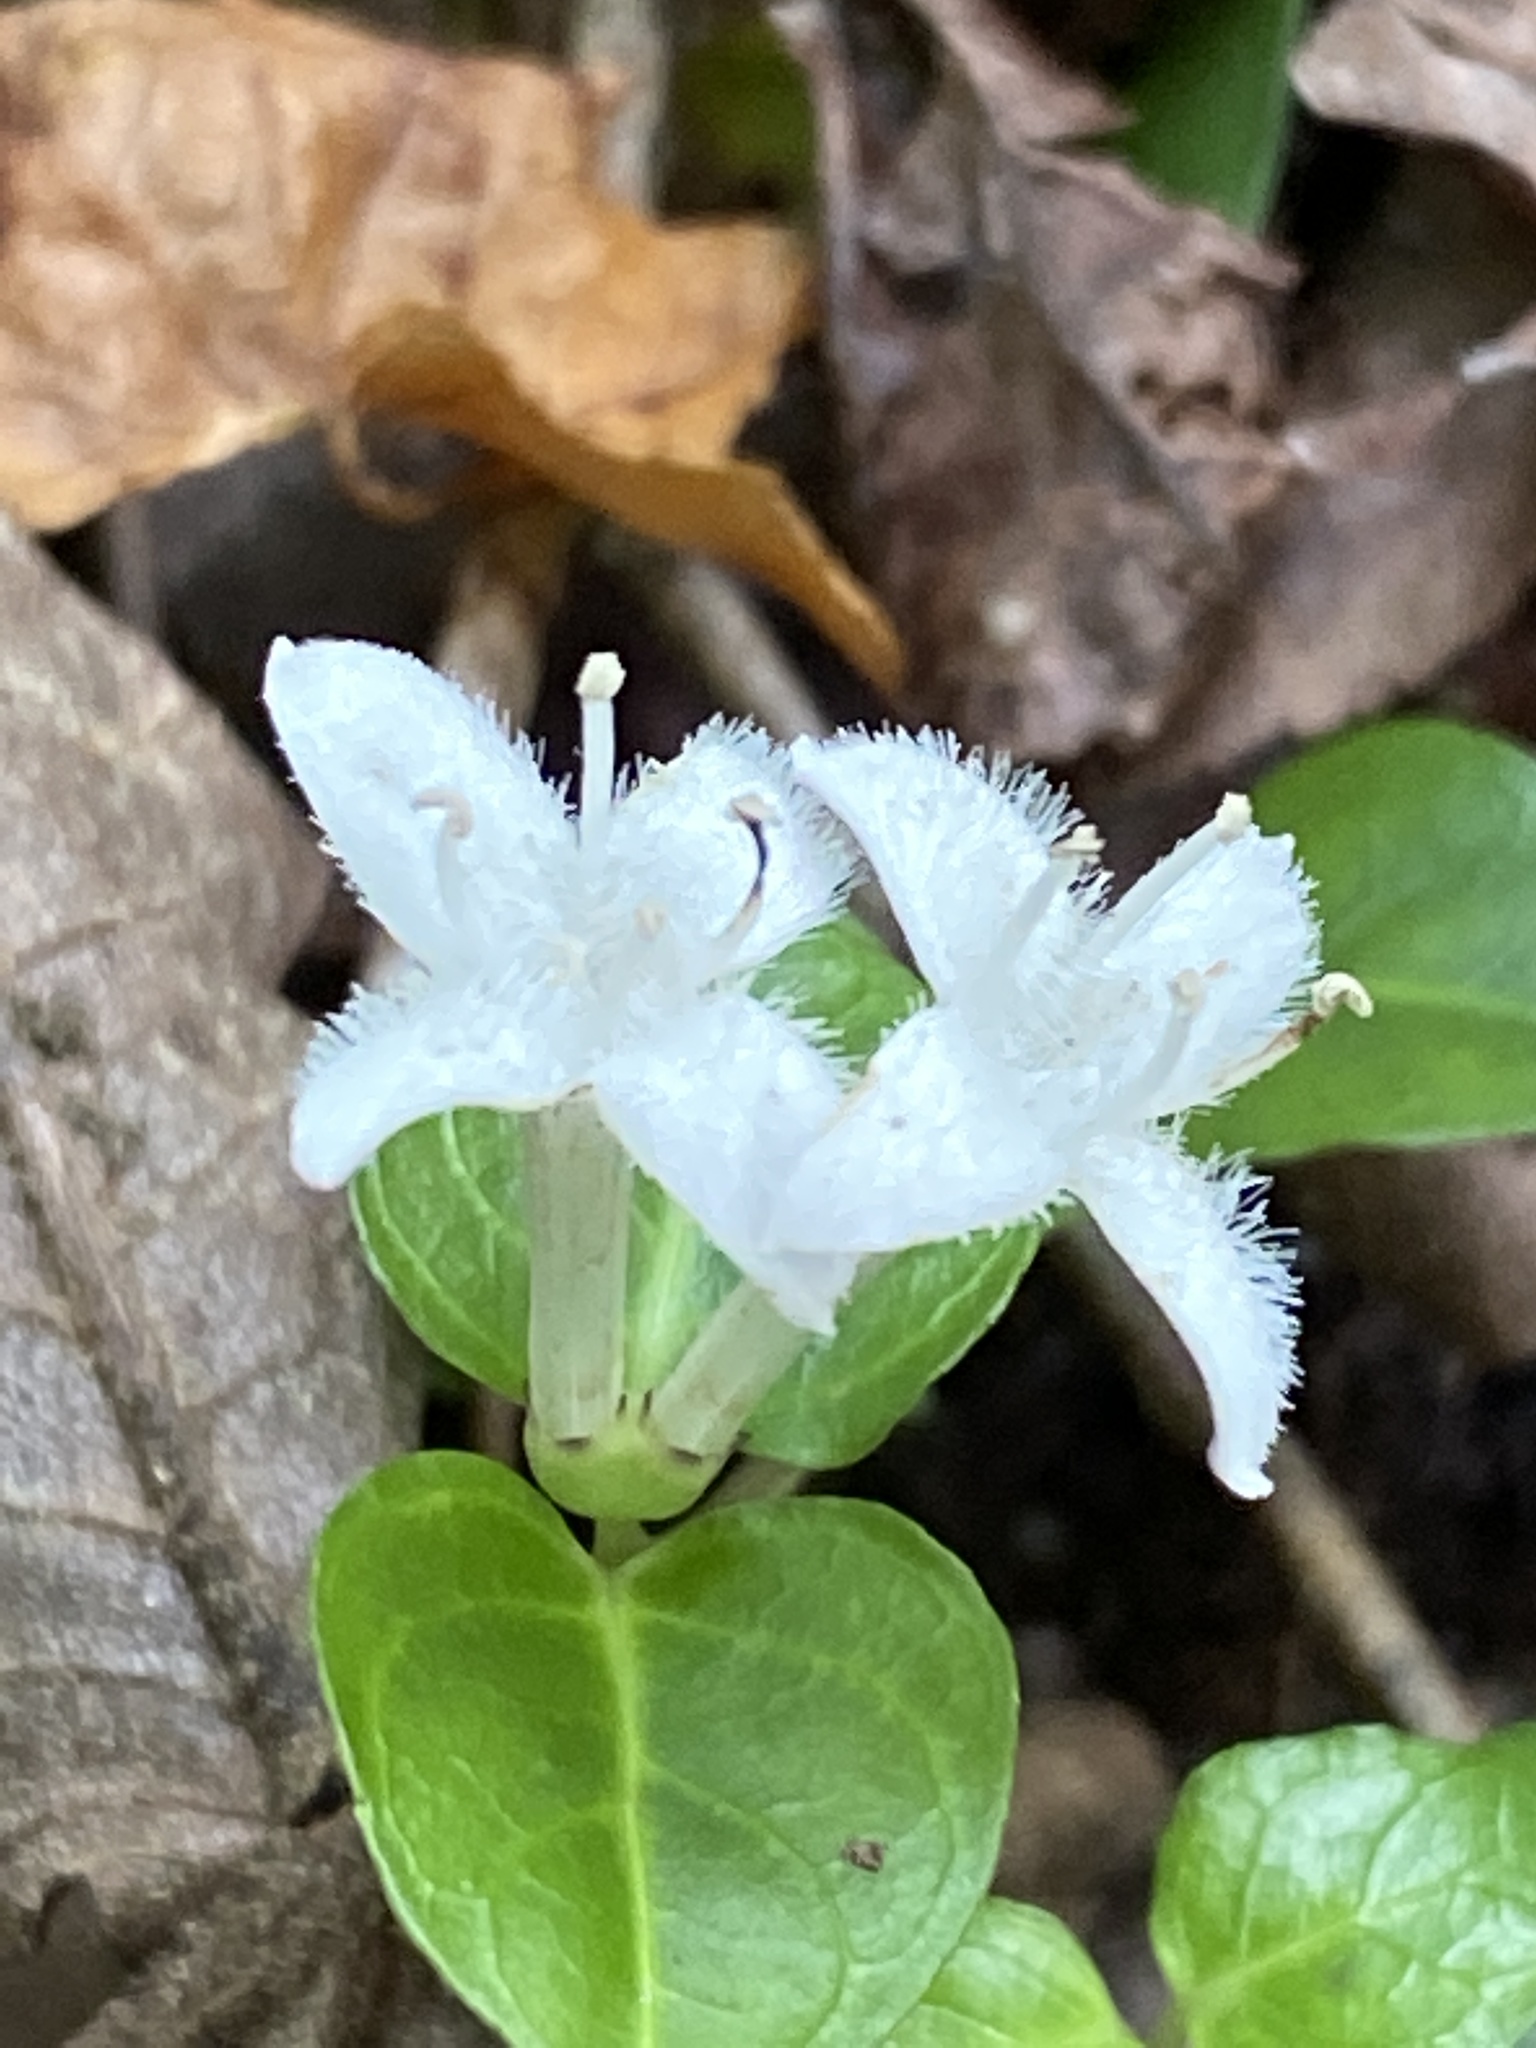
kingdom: Plantae
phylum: Tracheophyta
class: Magnoliopsida
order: Gentianales
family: Rubiaceae
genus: Mitchella
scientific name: Mitchella repens
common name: Partridge-berry
